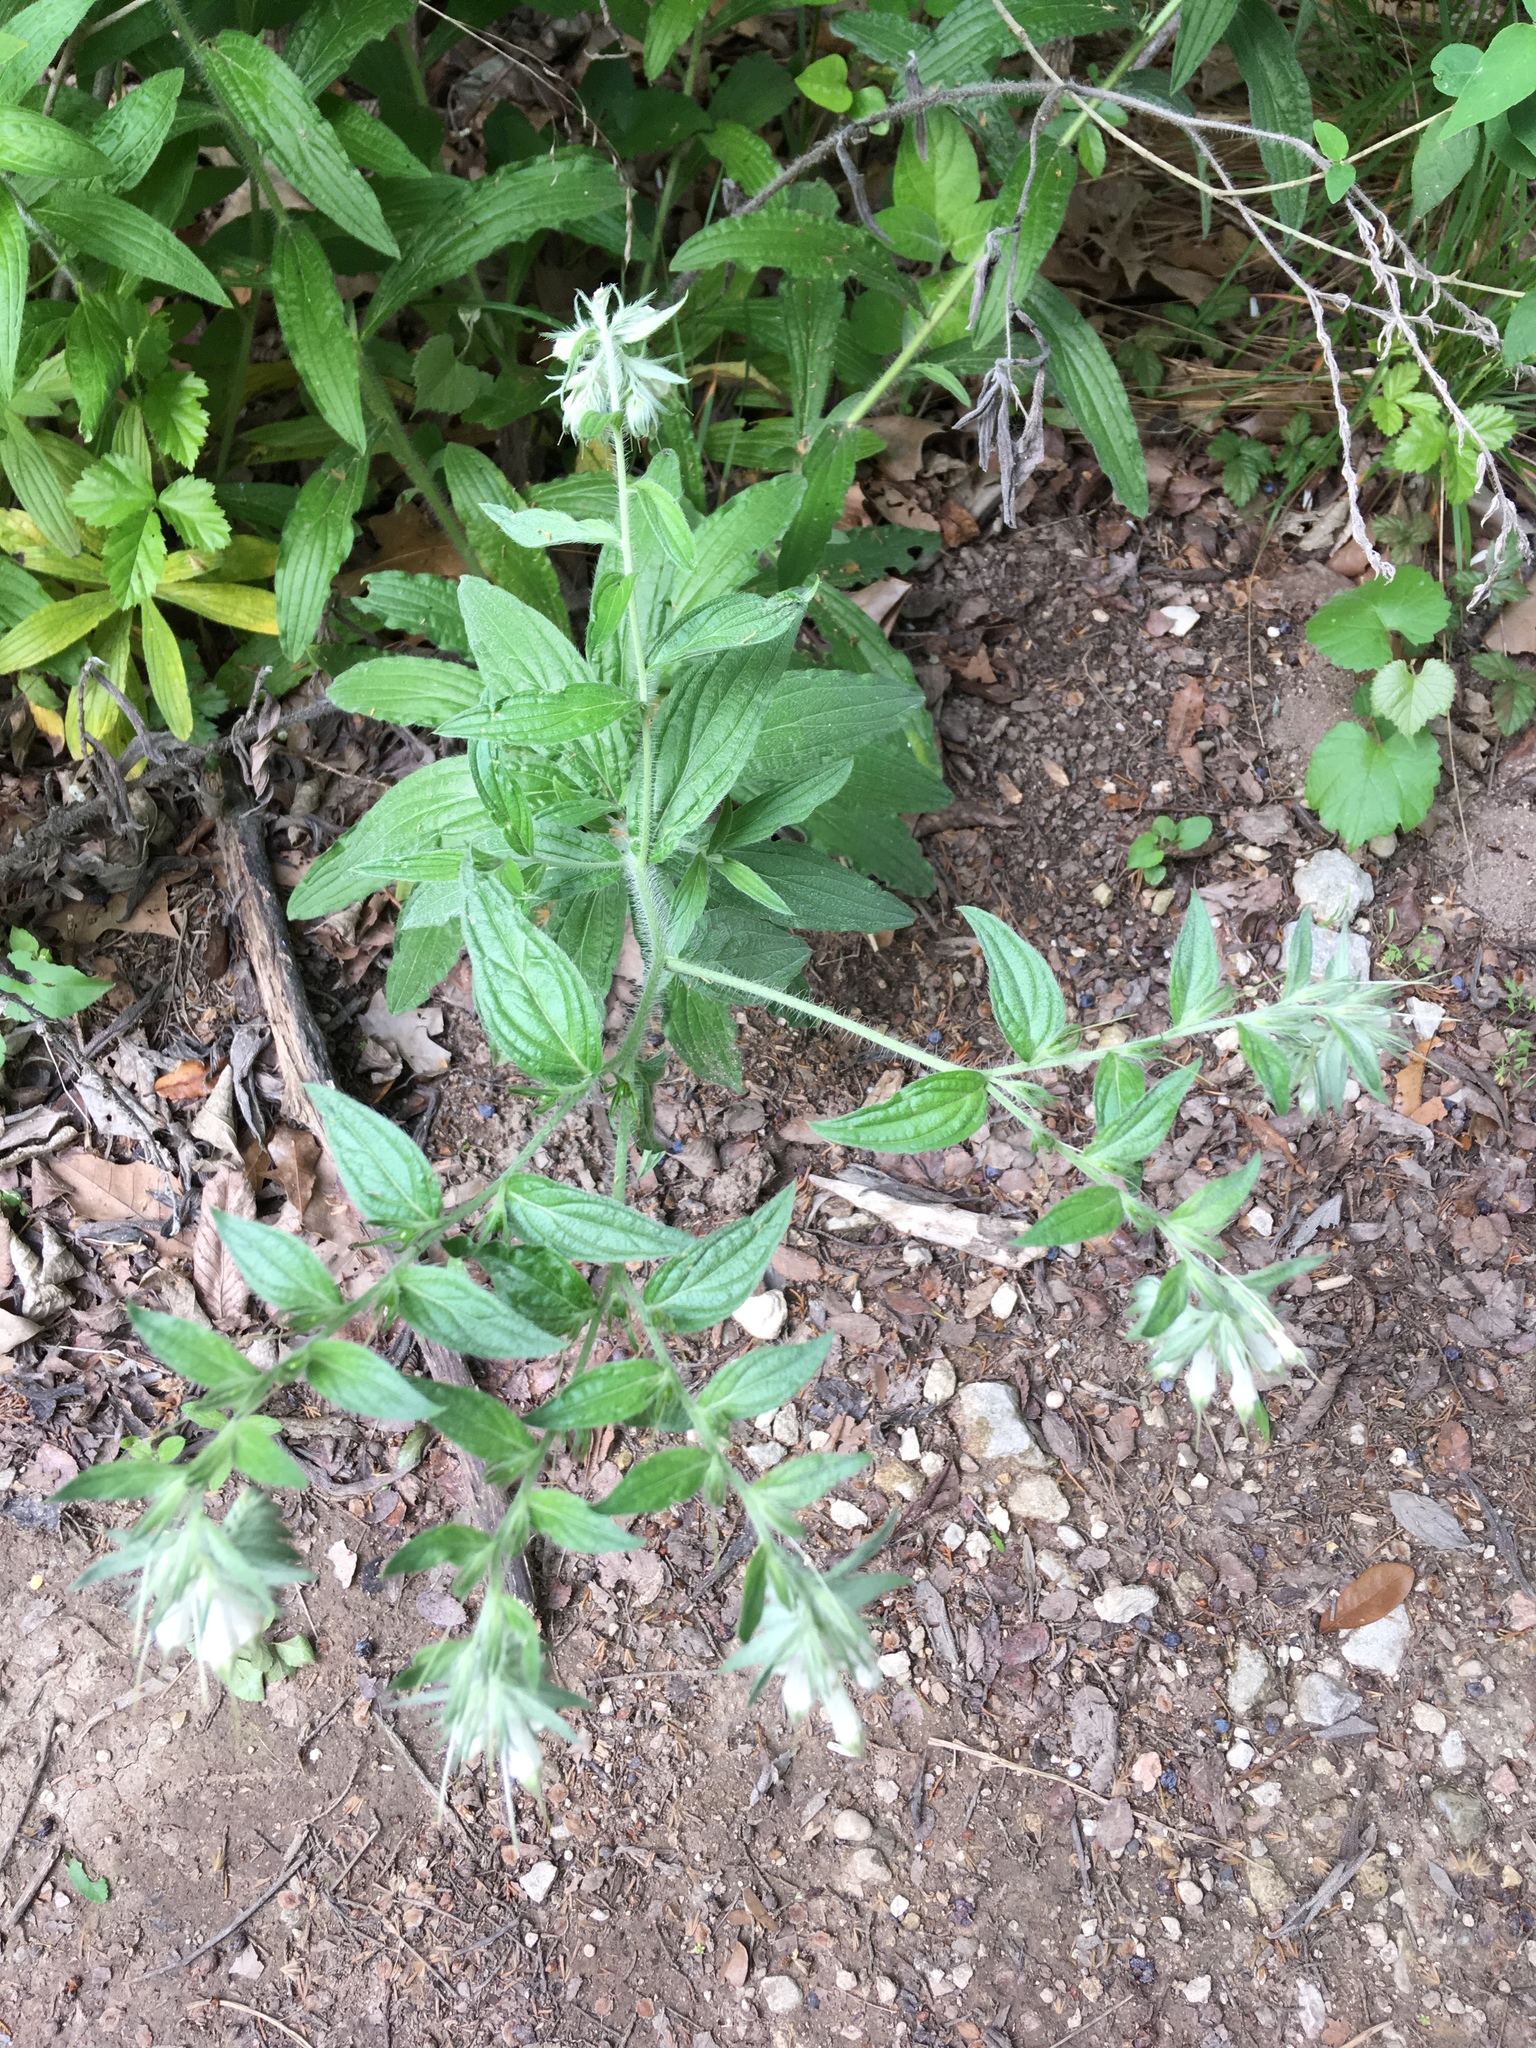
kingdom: Plantae
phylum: Tracheophyta
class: Magnoliopsida
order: Boraginales
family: Boraginaceae
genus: Lithospermum
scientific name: Lithospermum caroliniense
